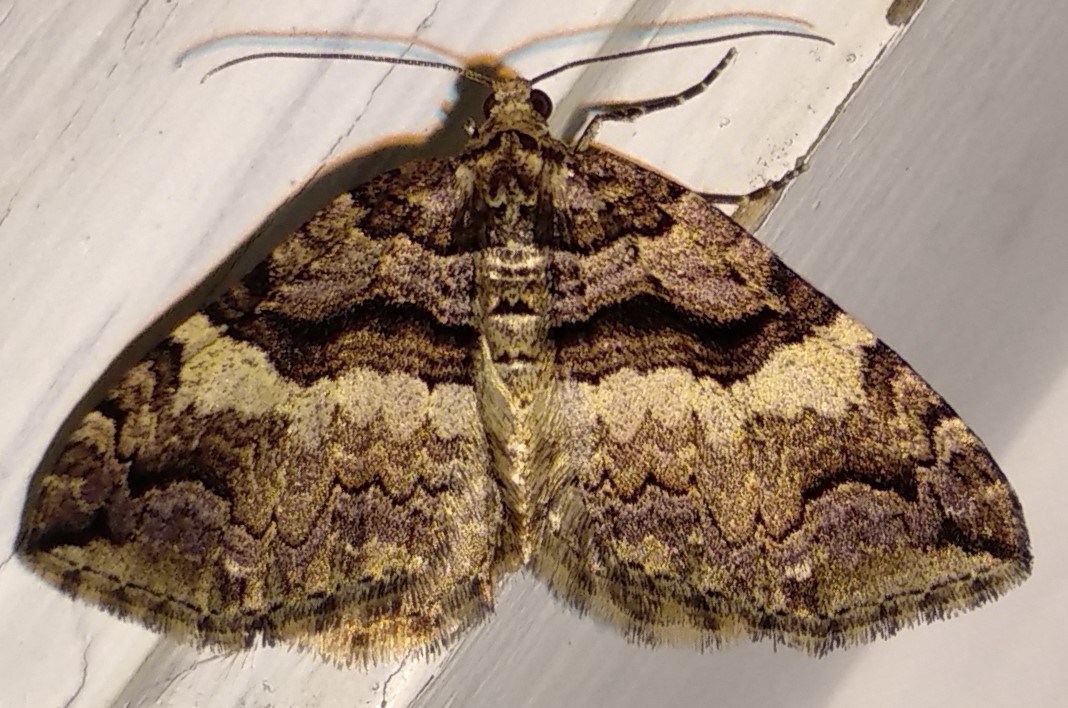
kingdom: Animalia
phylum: Arthropoda
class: Insecta
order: Lepidoptera
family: Geometridae
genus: Anticlea
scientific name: Anticlea vasiliata
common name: Variable carpet
